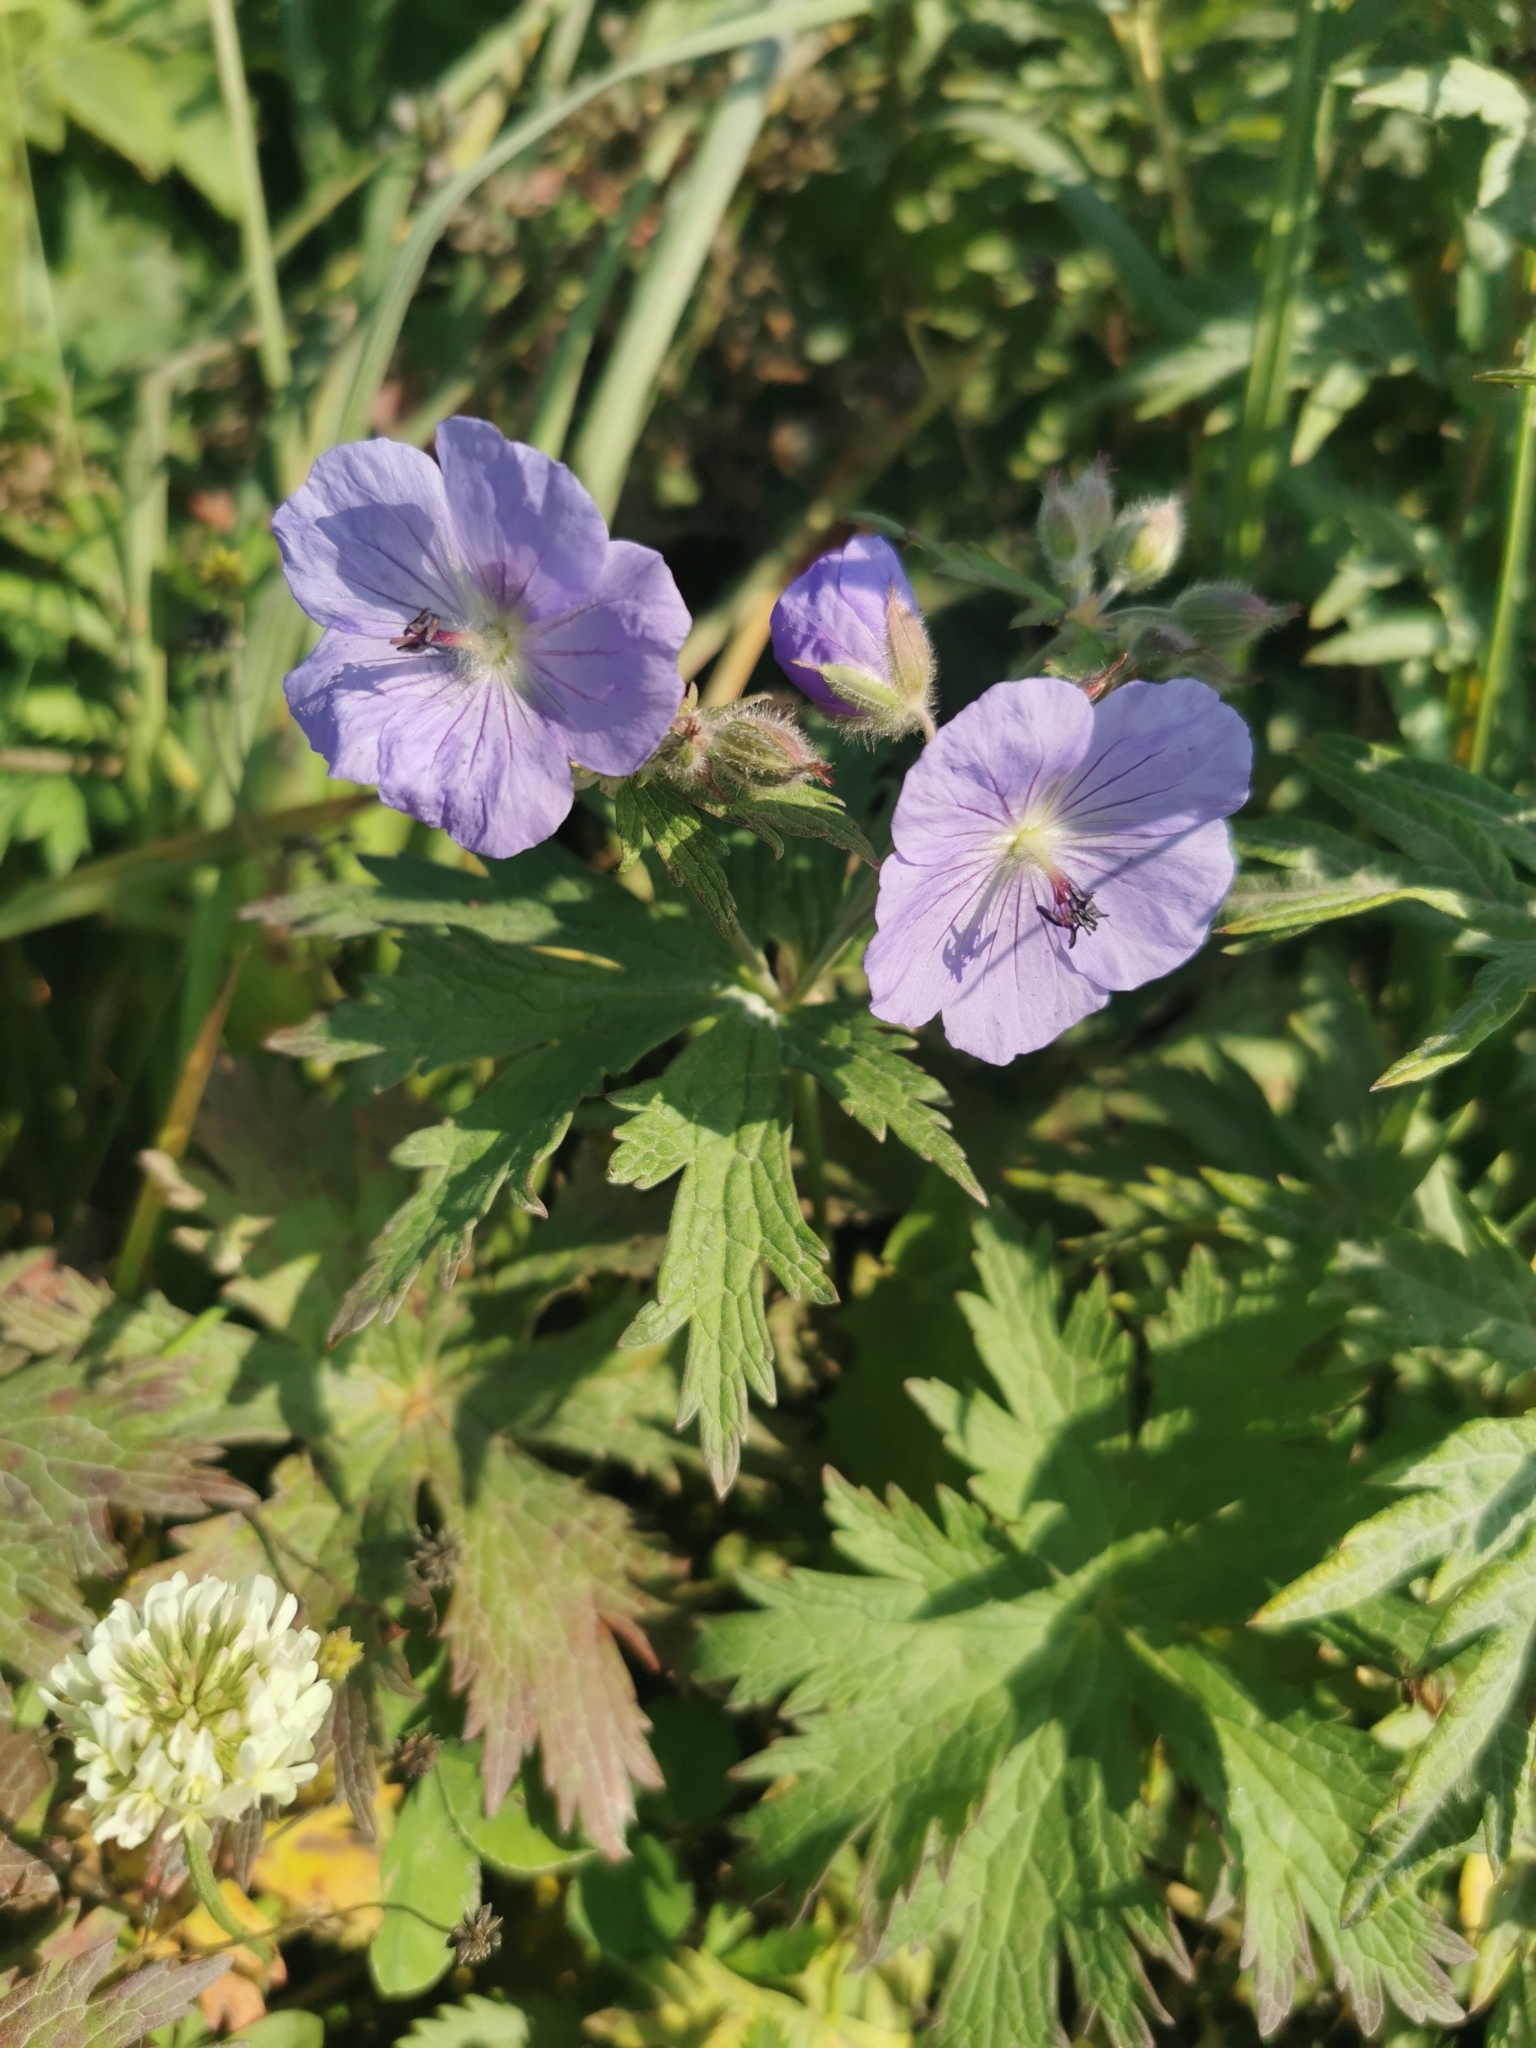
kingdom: Plantae
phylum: Tracheophyta
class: Magnoliopsida
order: Geraniales
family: Geraniaceae
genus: Geranium
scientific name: Geranium erianthum
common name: Northern crane's-bill
